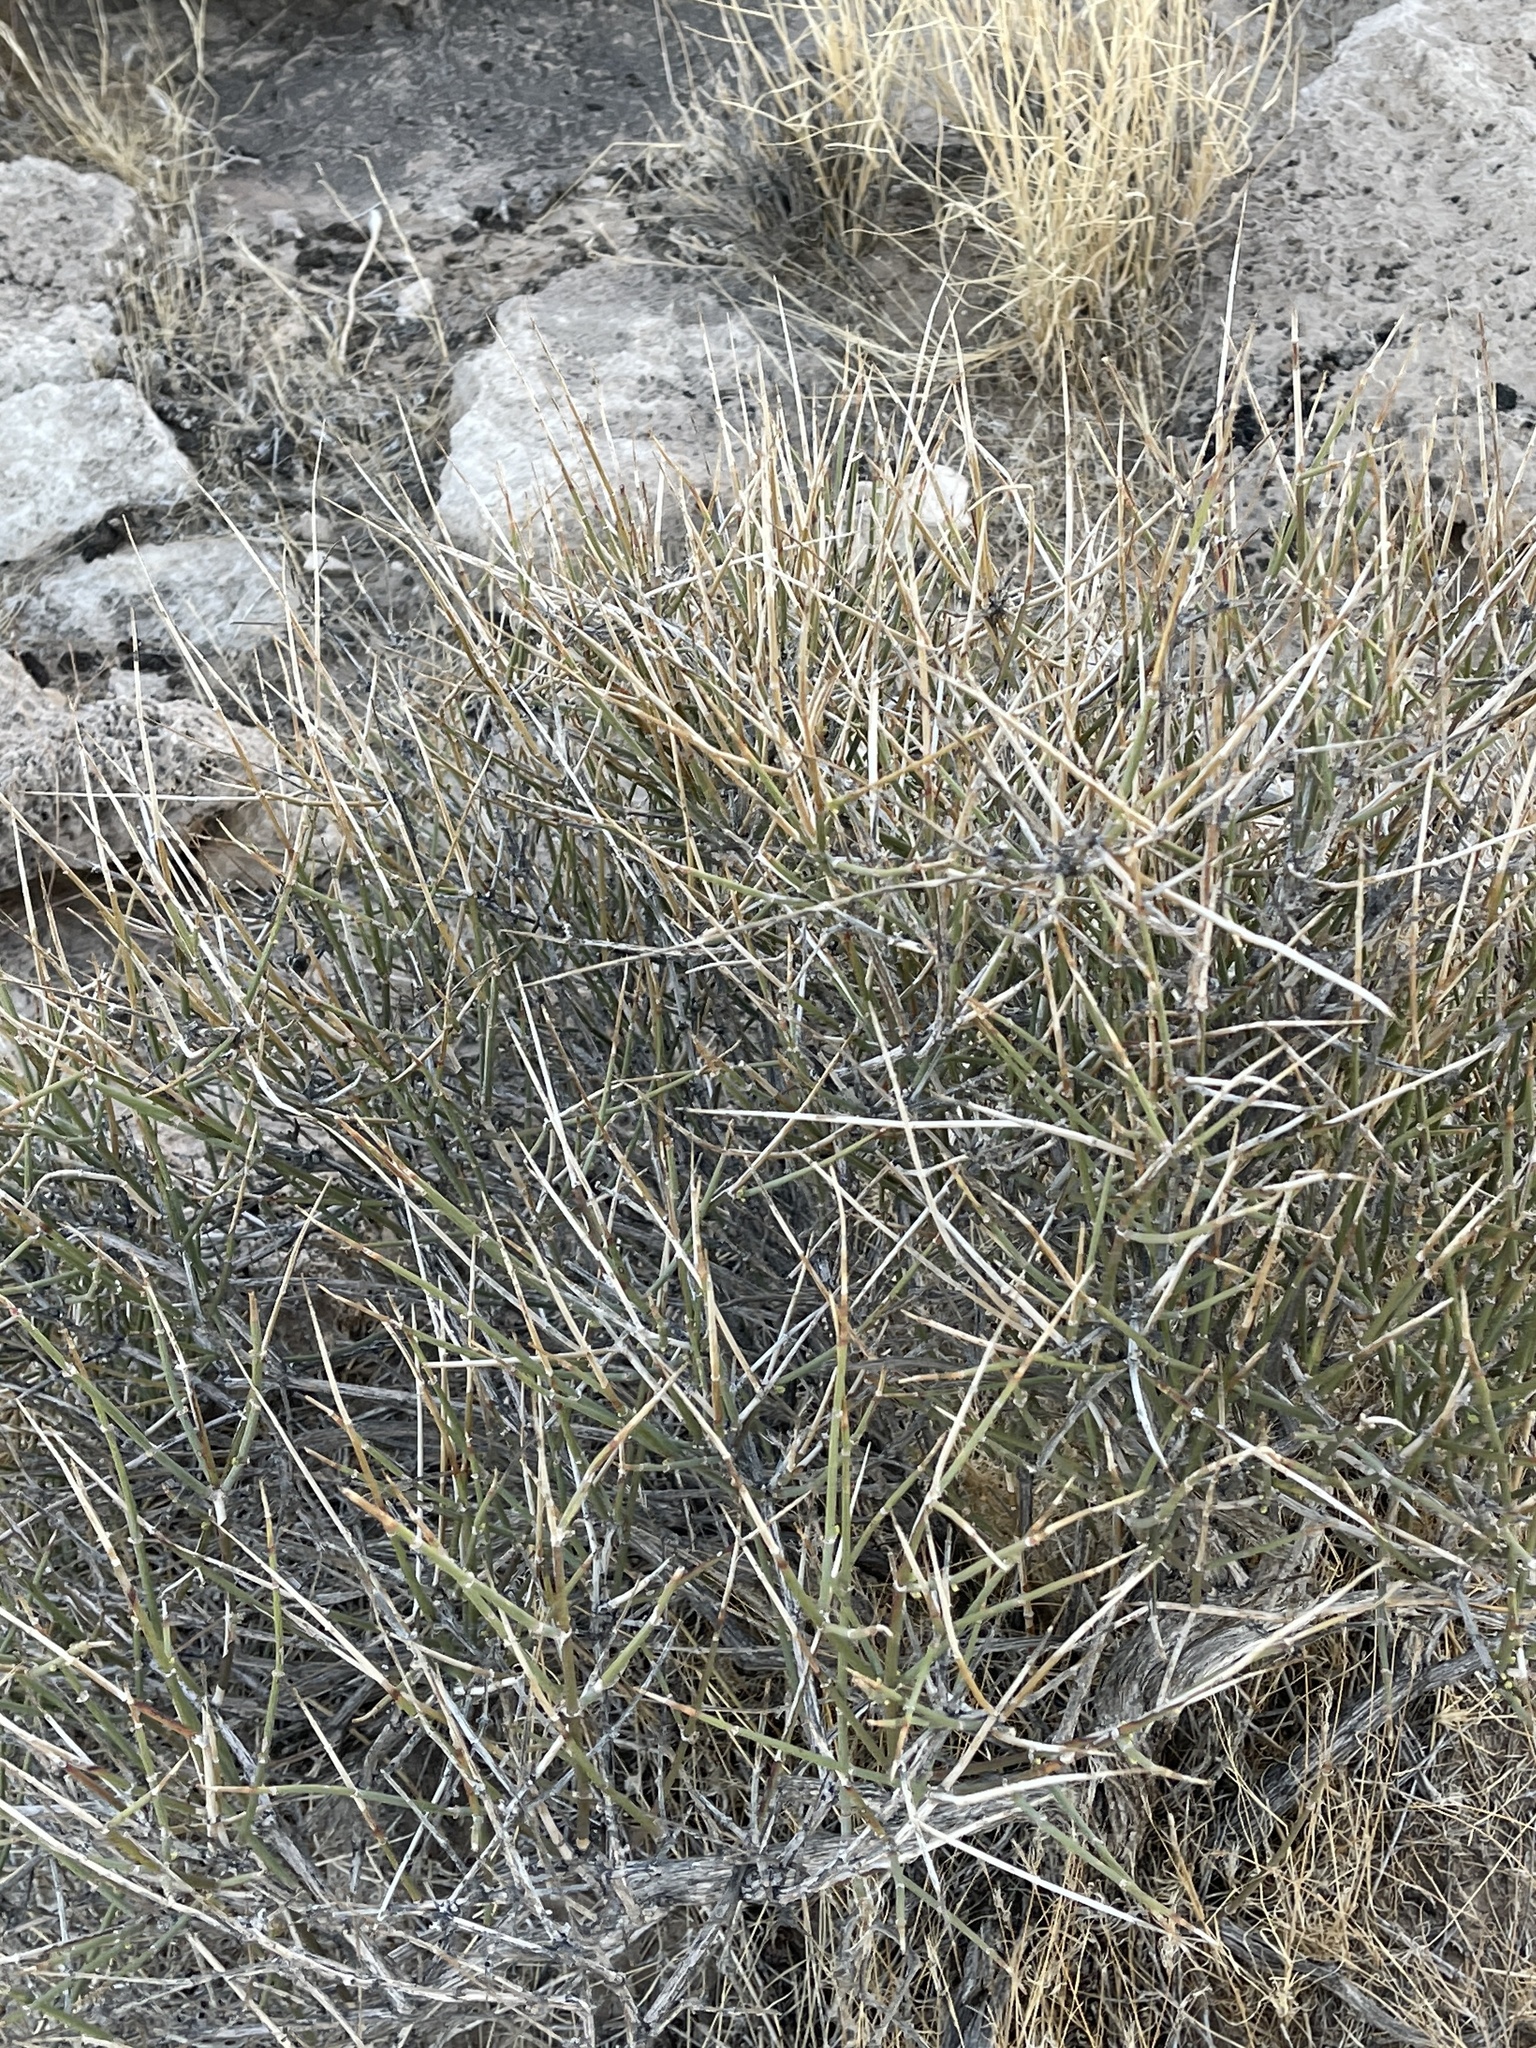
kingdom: Plantae
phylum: Tracheophyta
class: Gnetopsida
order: Ephedrales
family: Ephedraceae
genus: Ephedra
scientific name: Ephedra nevadensis
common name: Gray ephedra
